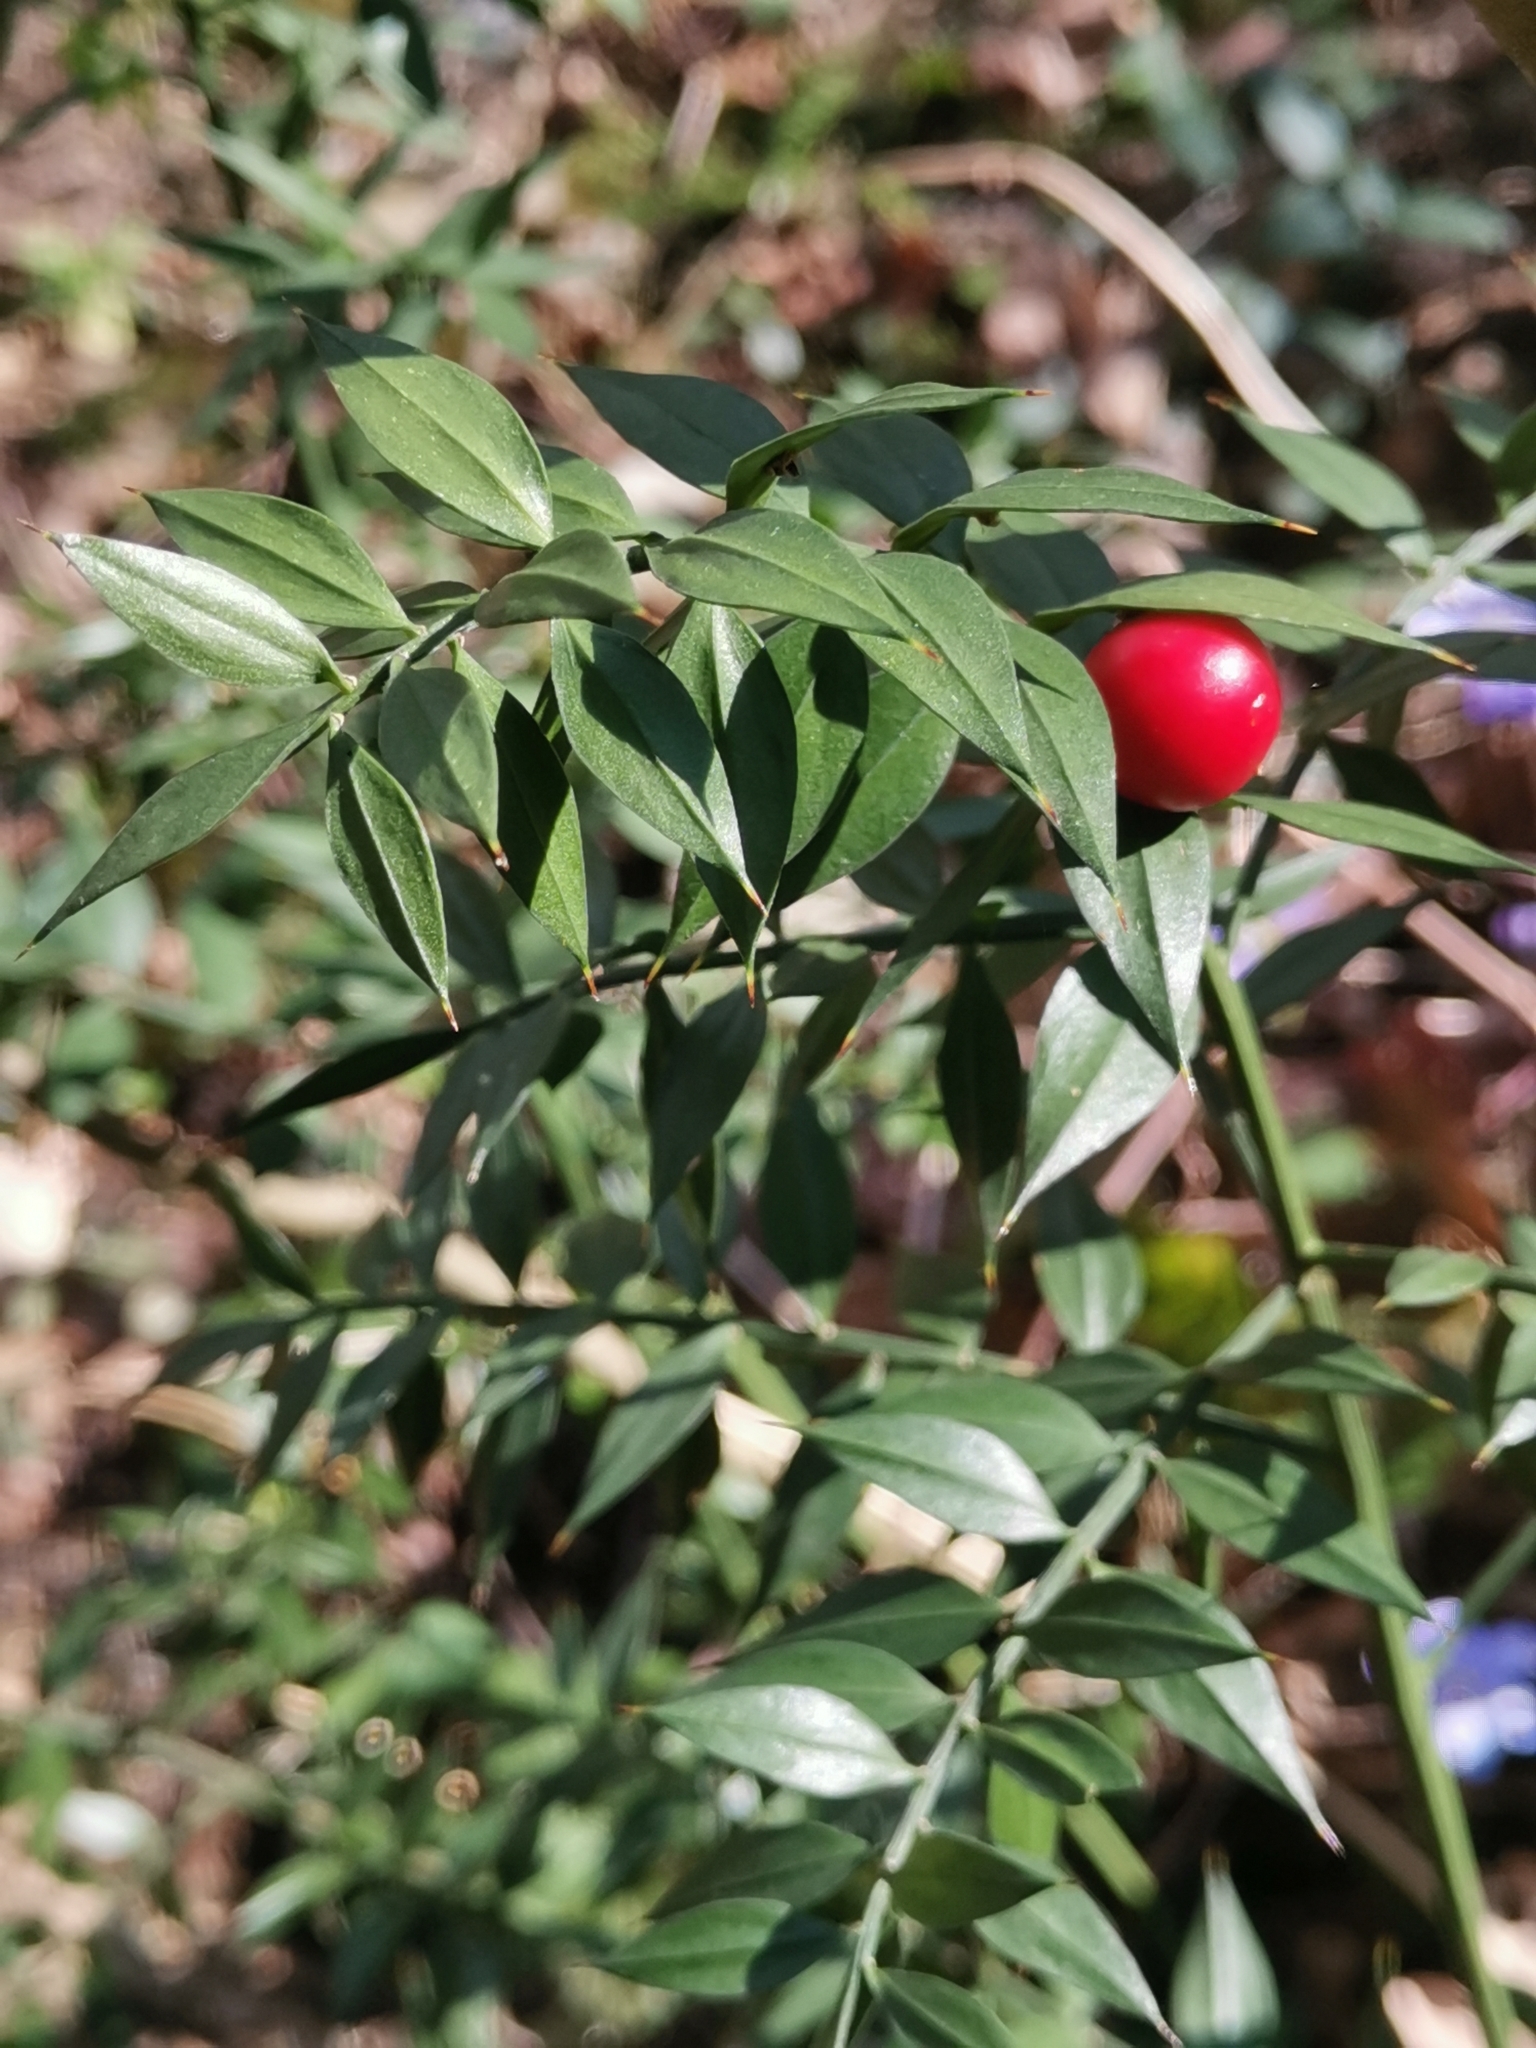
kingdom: Plantae
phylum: Tracheophyta
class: Liliopsida
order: Asparagales
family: Asparagaceae
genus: Ruscus
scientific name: Ruscus aculeatus
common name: Butcher's-broom
